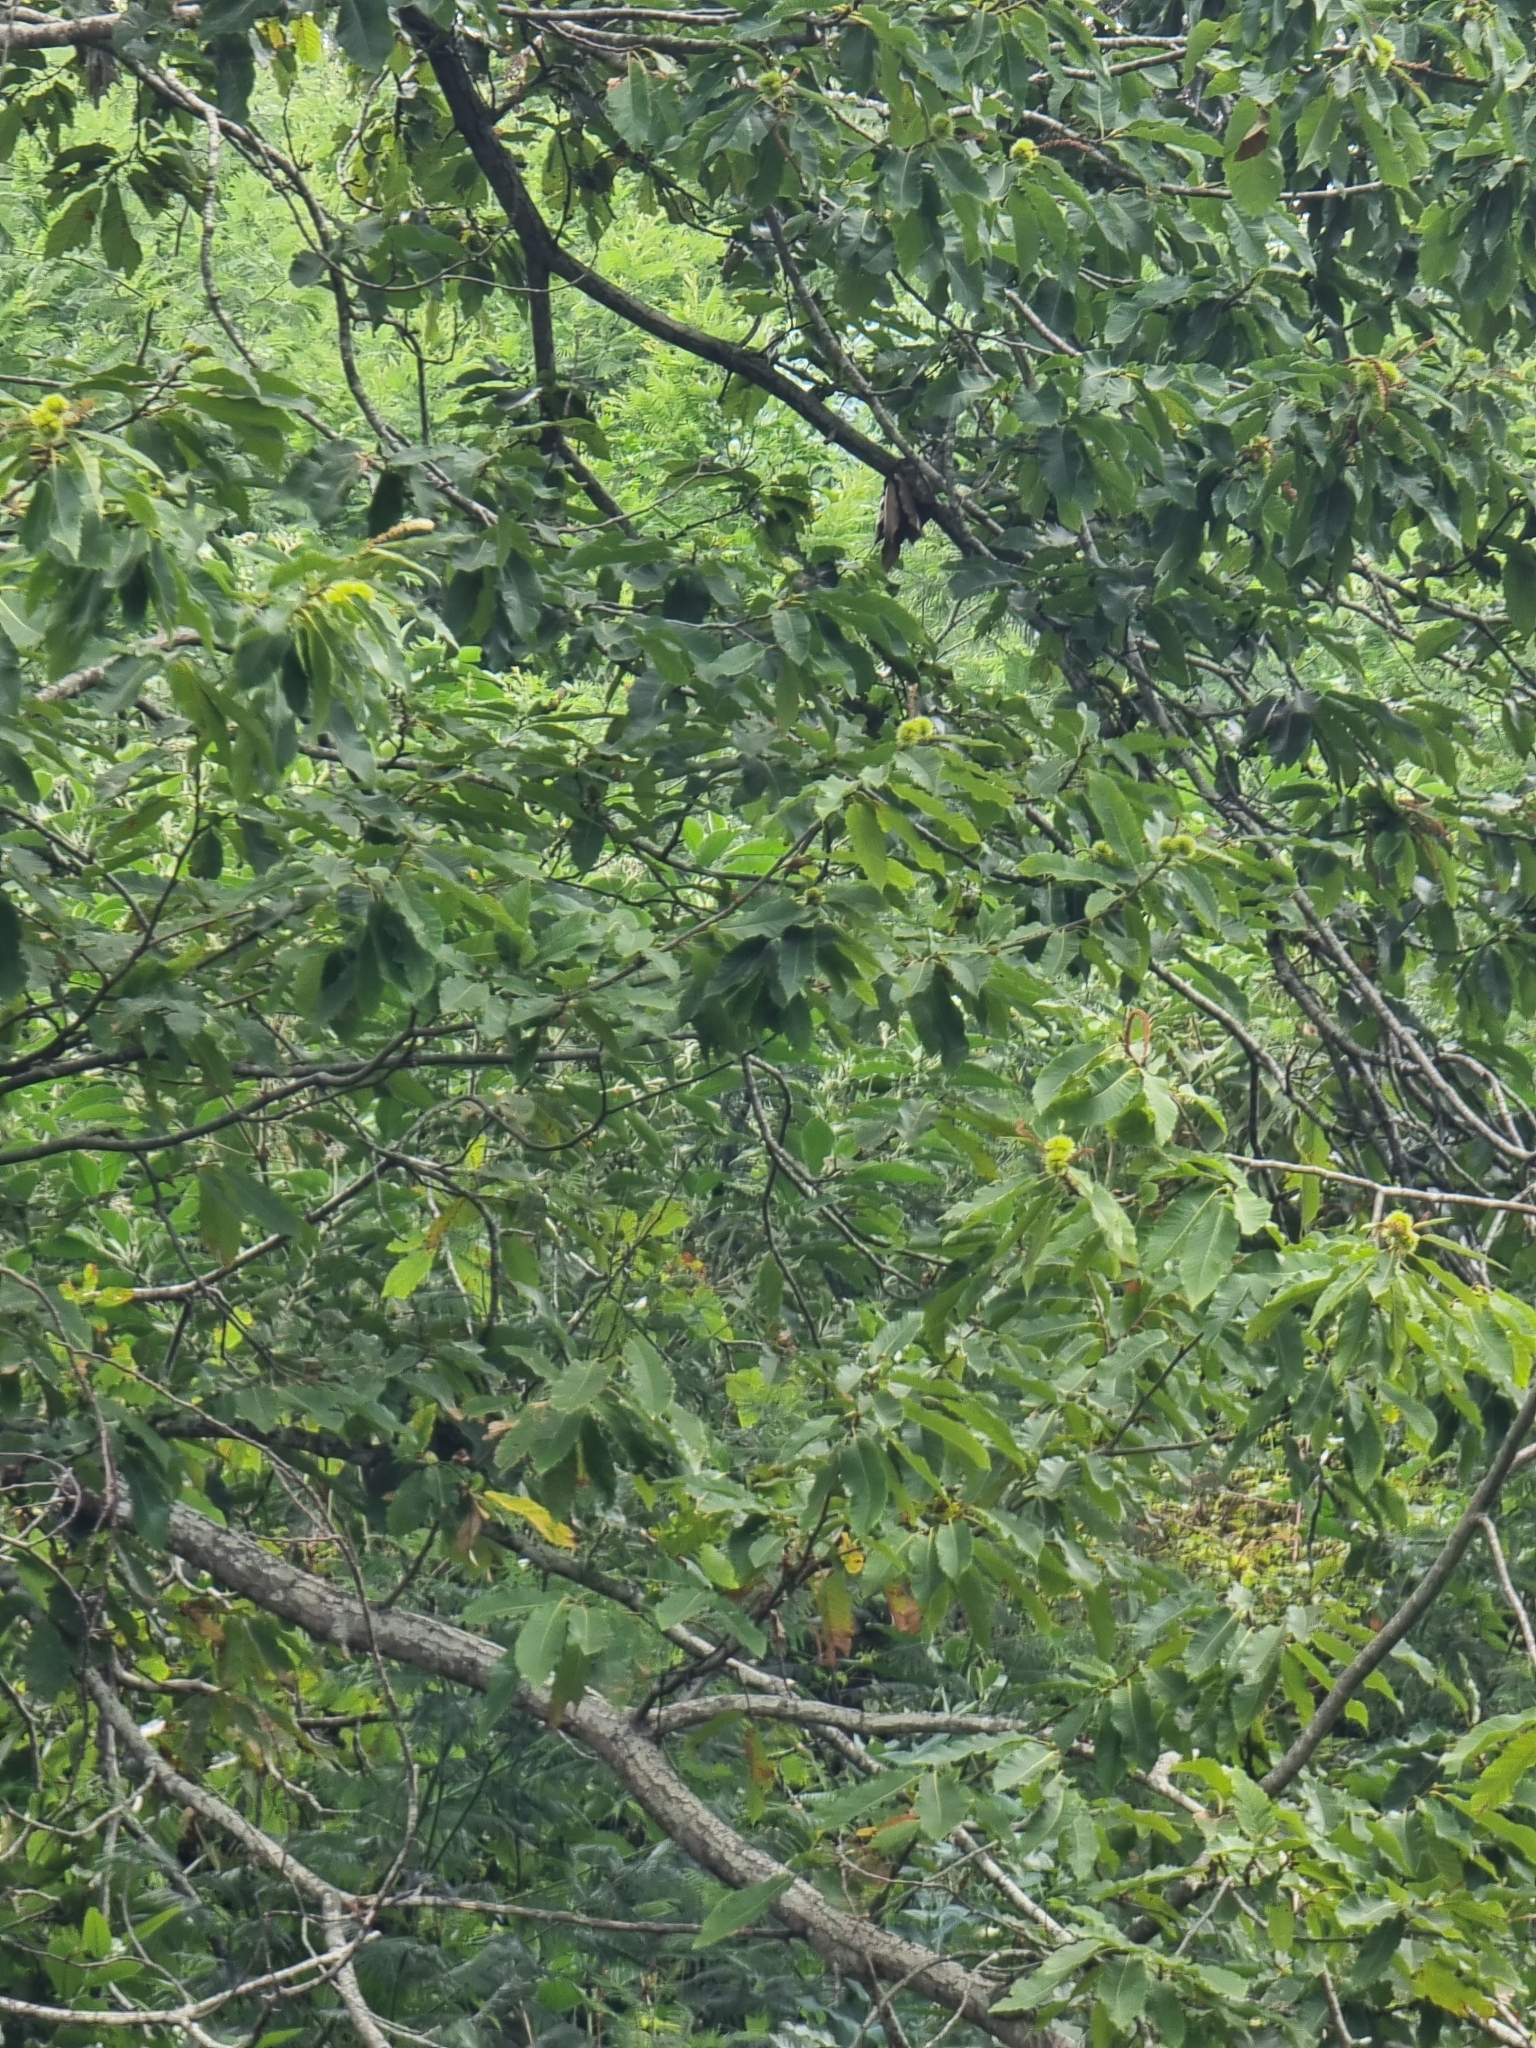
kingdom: Plantae
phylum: Tracheophyta
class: Magnoliopsida
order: Fagales
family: Fagaceae
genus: Castanea
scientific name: Castanea sativa
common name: Sweet chestnut
